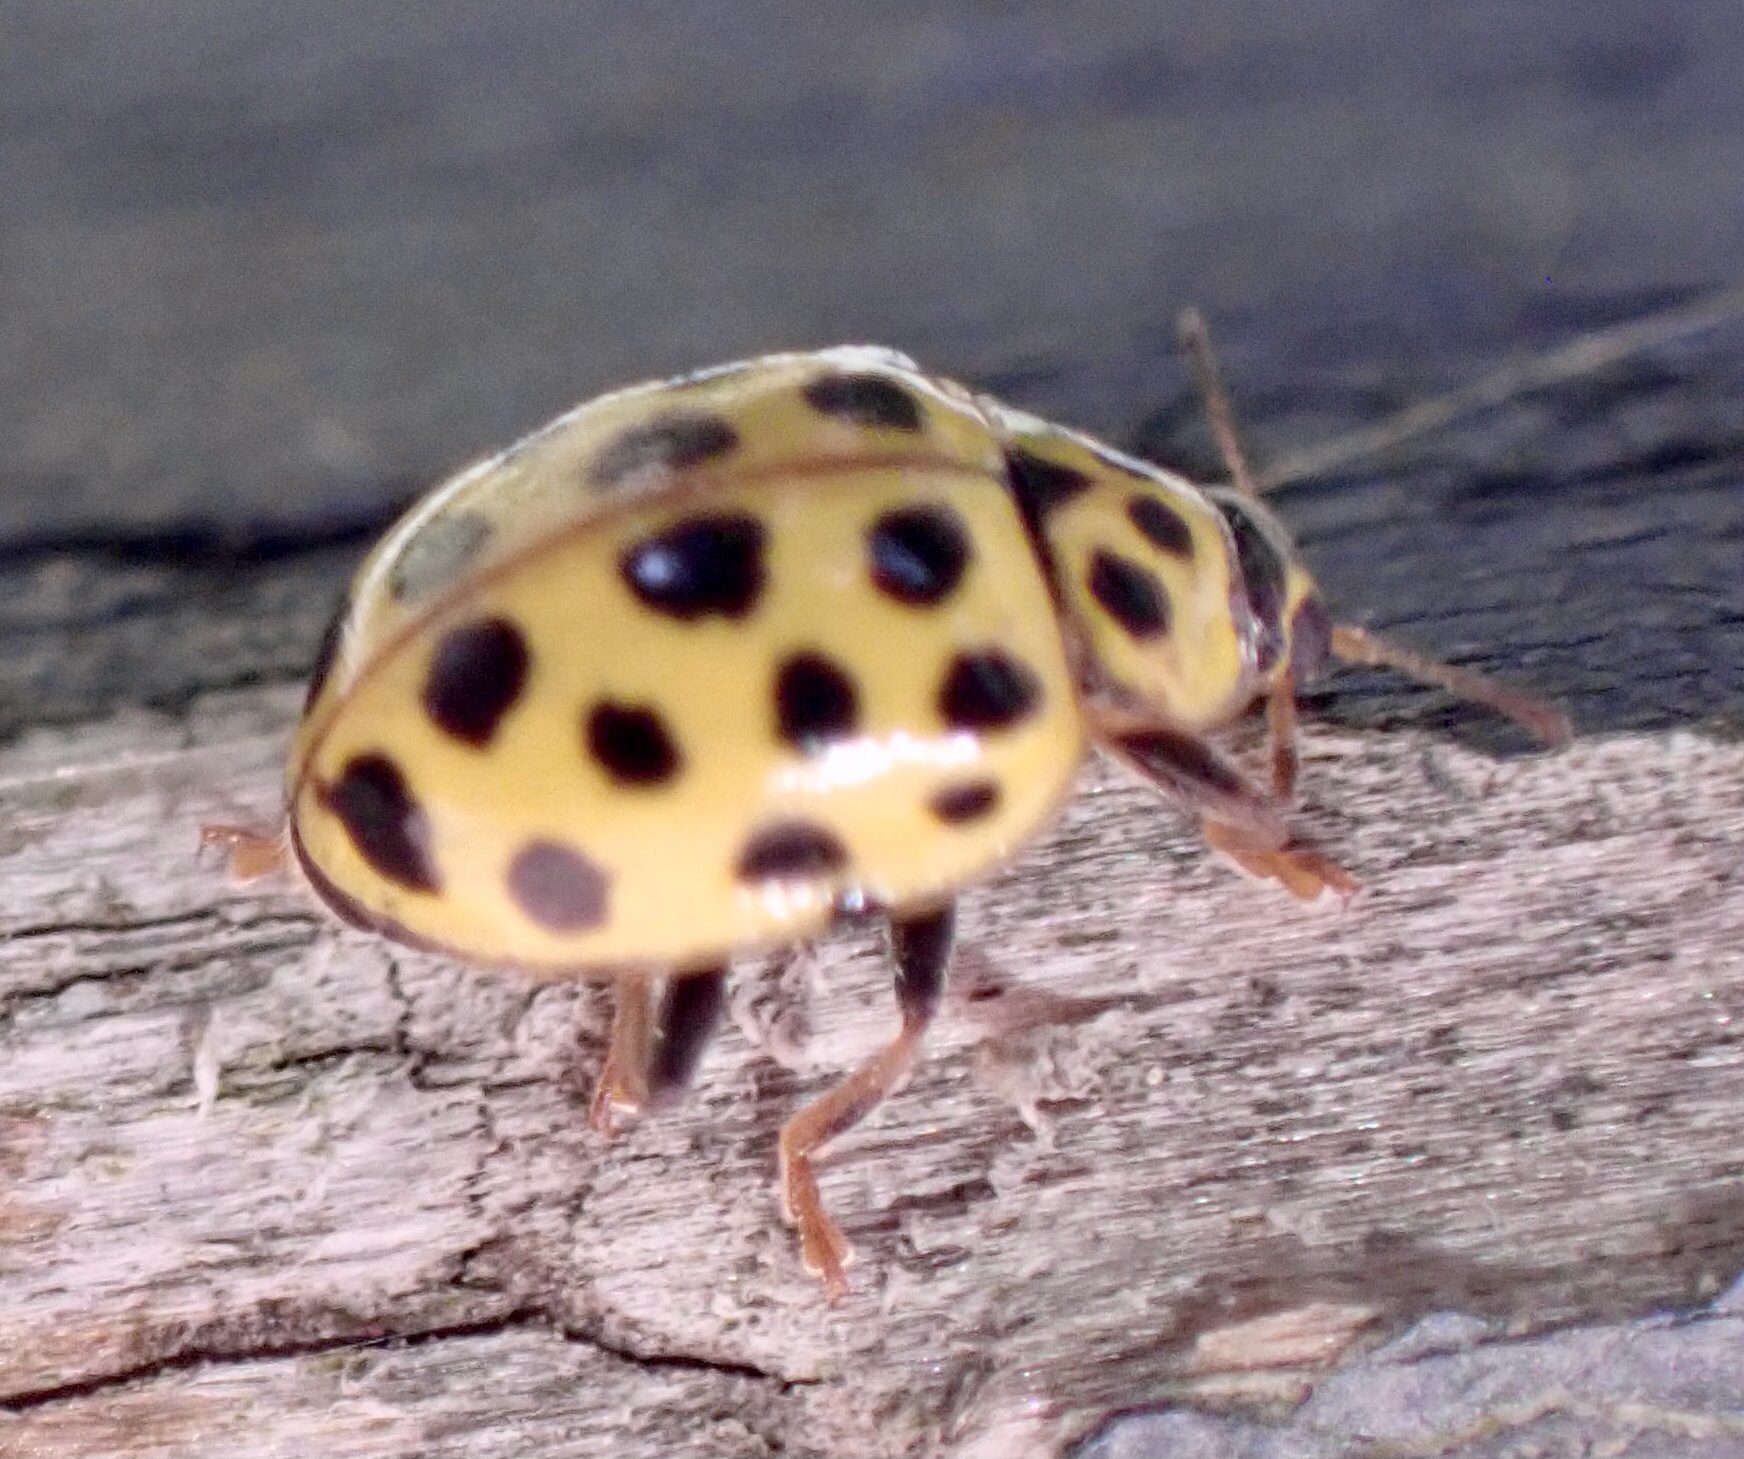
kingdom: Animalia
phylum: Arthropoda
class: Insecta
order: Coleoptera
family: Coccinellidae
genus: Psyllobora
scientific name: Psyllobora vigintiduopunctata
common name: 22-spot ladybird
